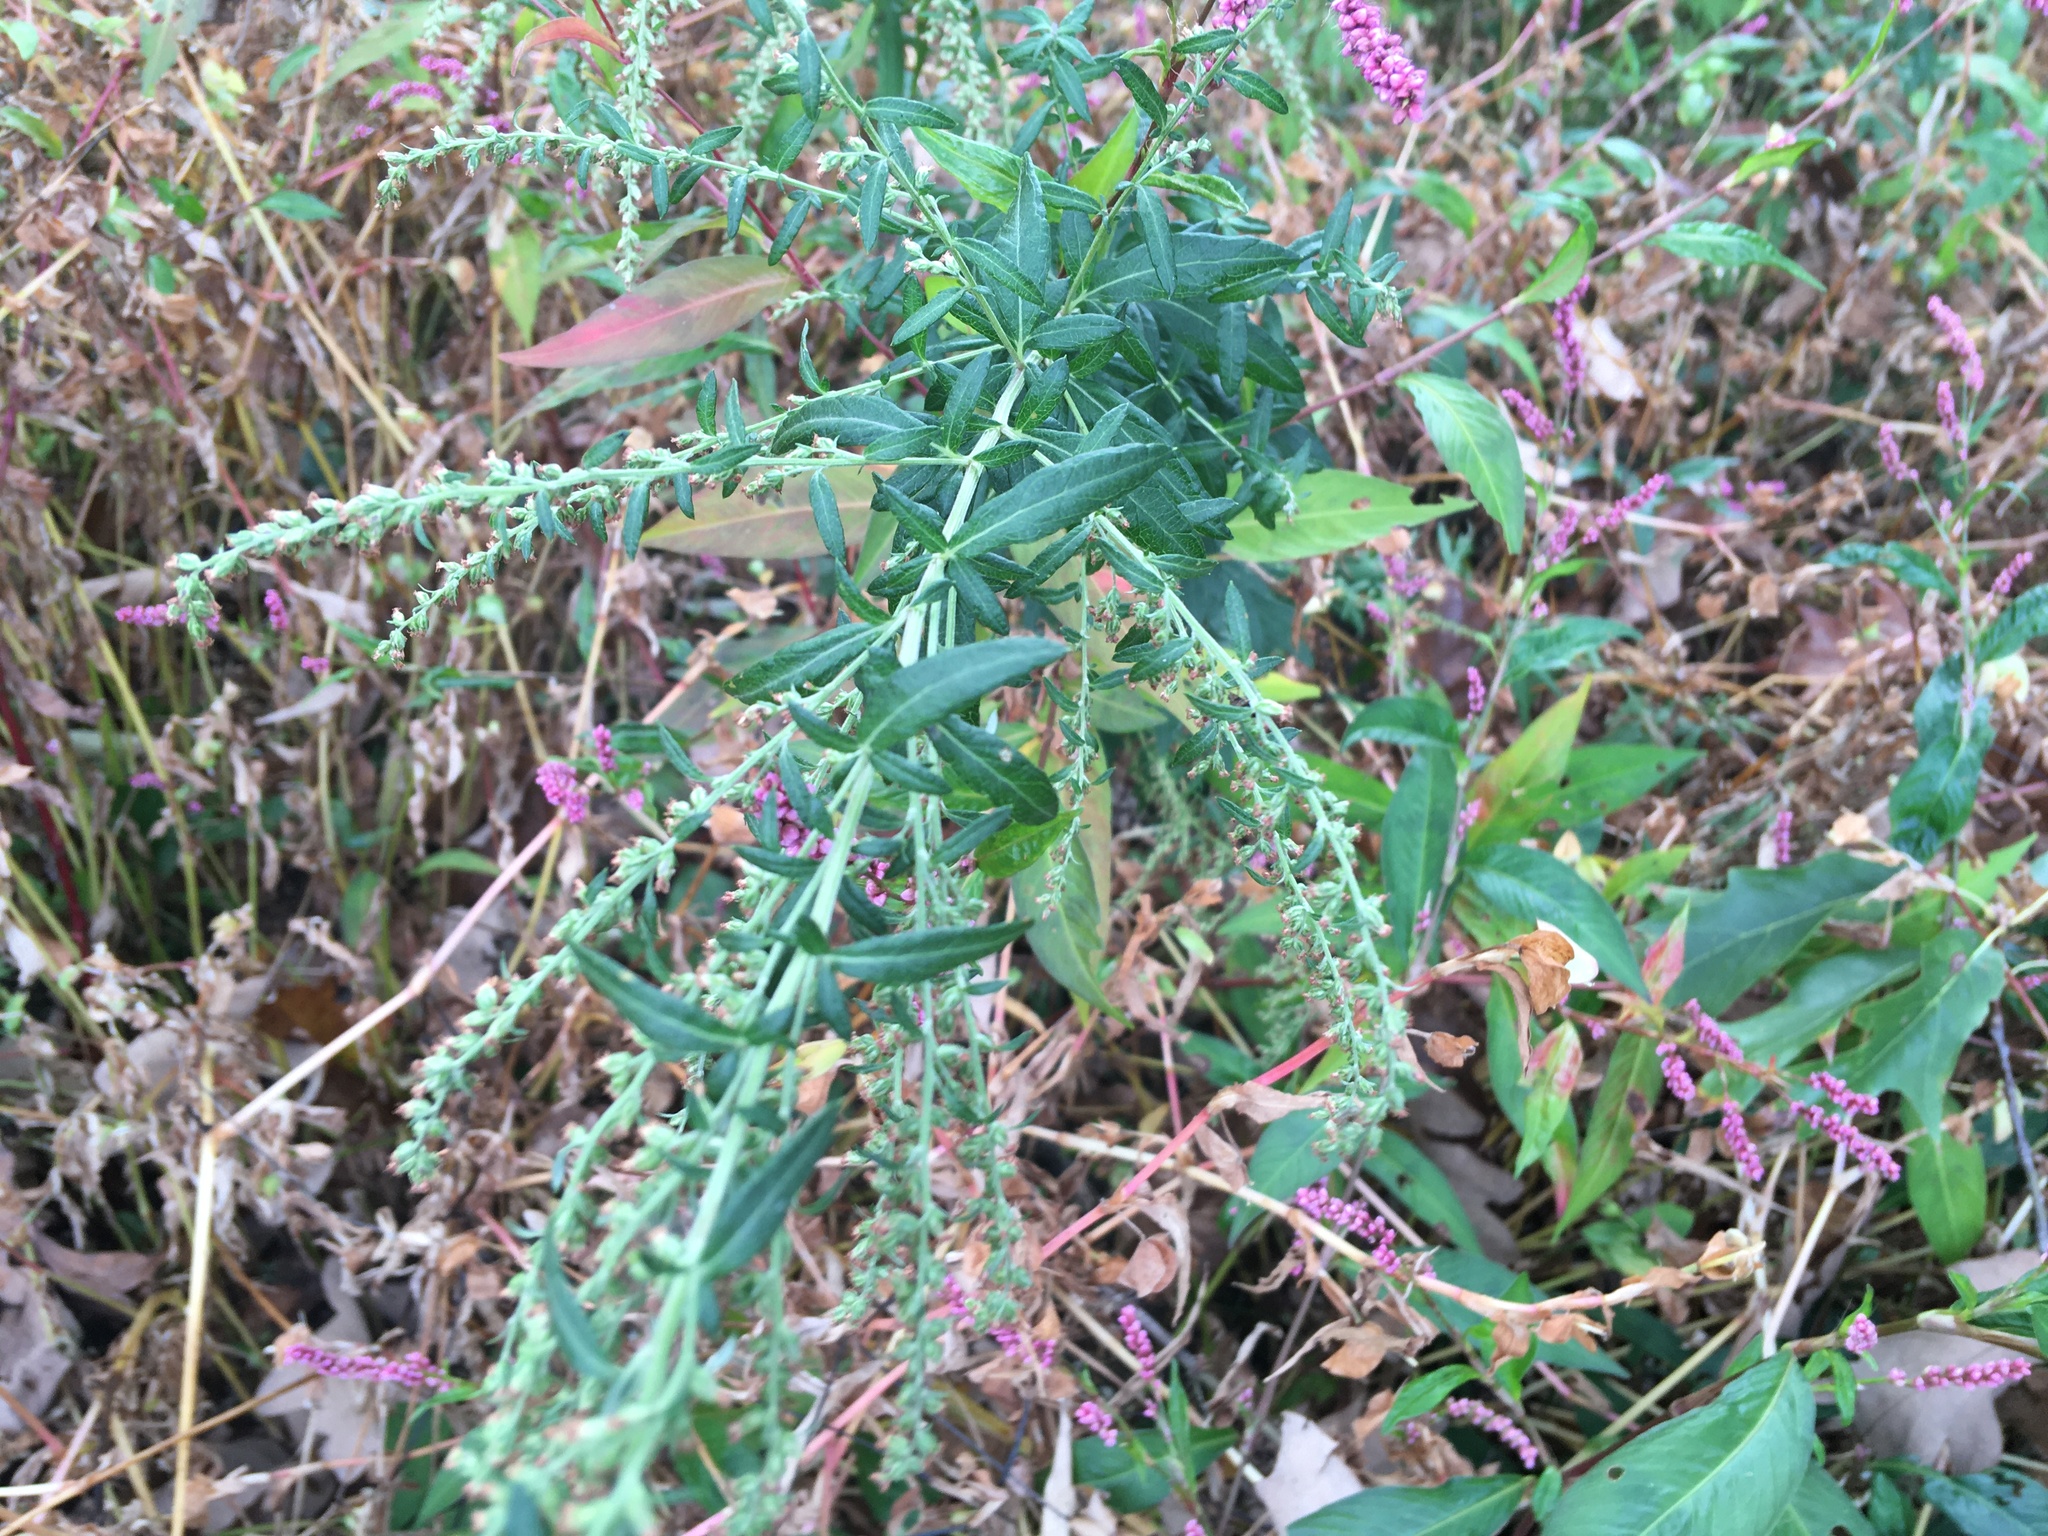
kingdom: Plantae
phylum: Tracheophyta
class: Magnoliopsida
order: Asterales
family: Asteraceae
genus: Artemisia
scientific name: Artemisia vulgaris
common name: Mugwort
